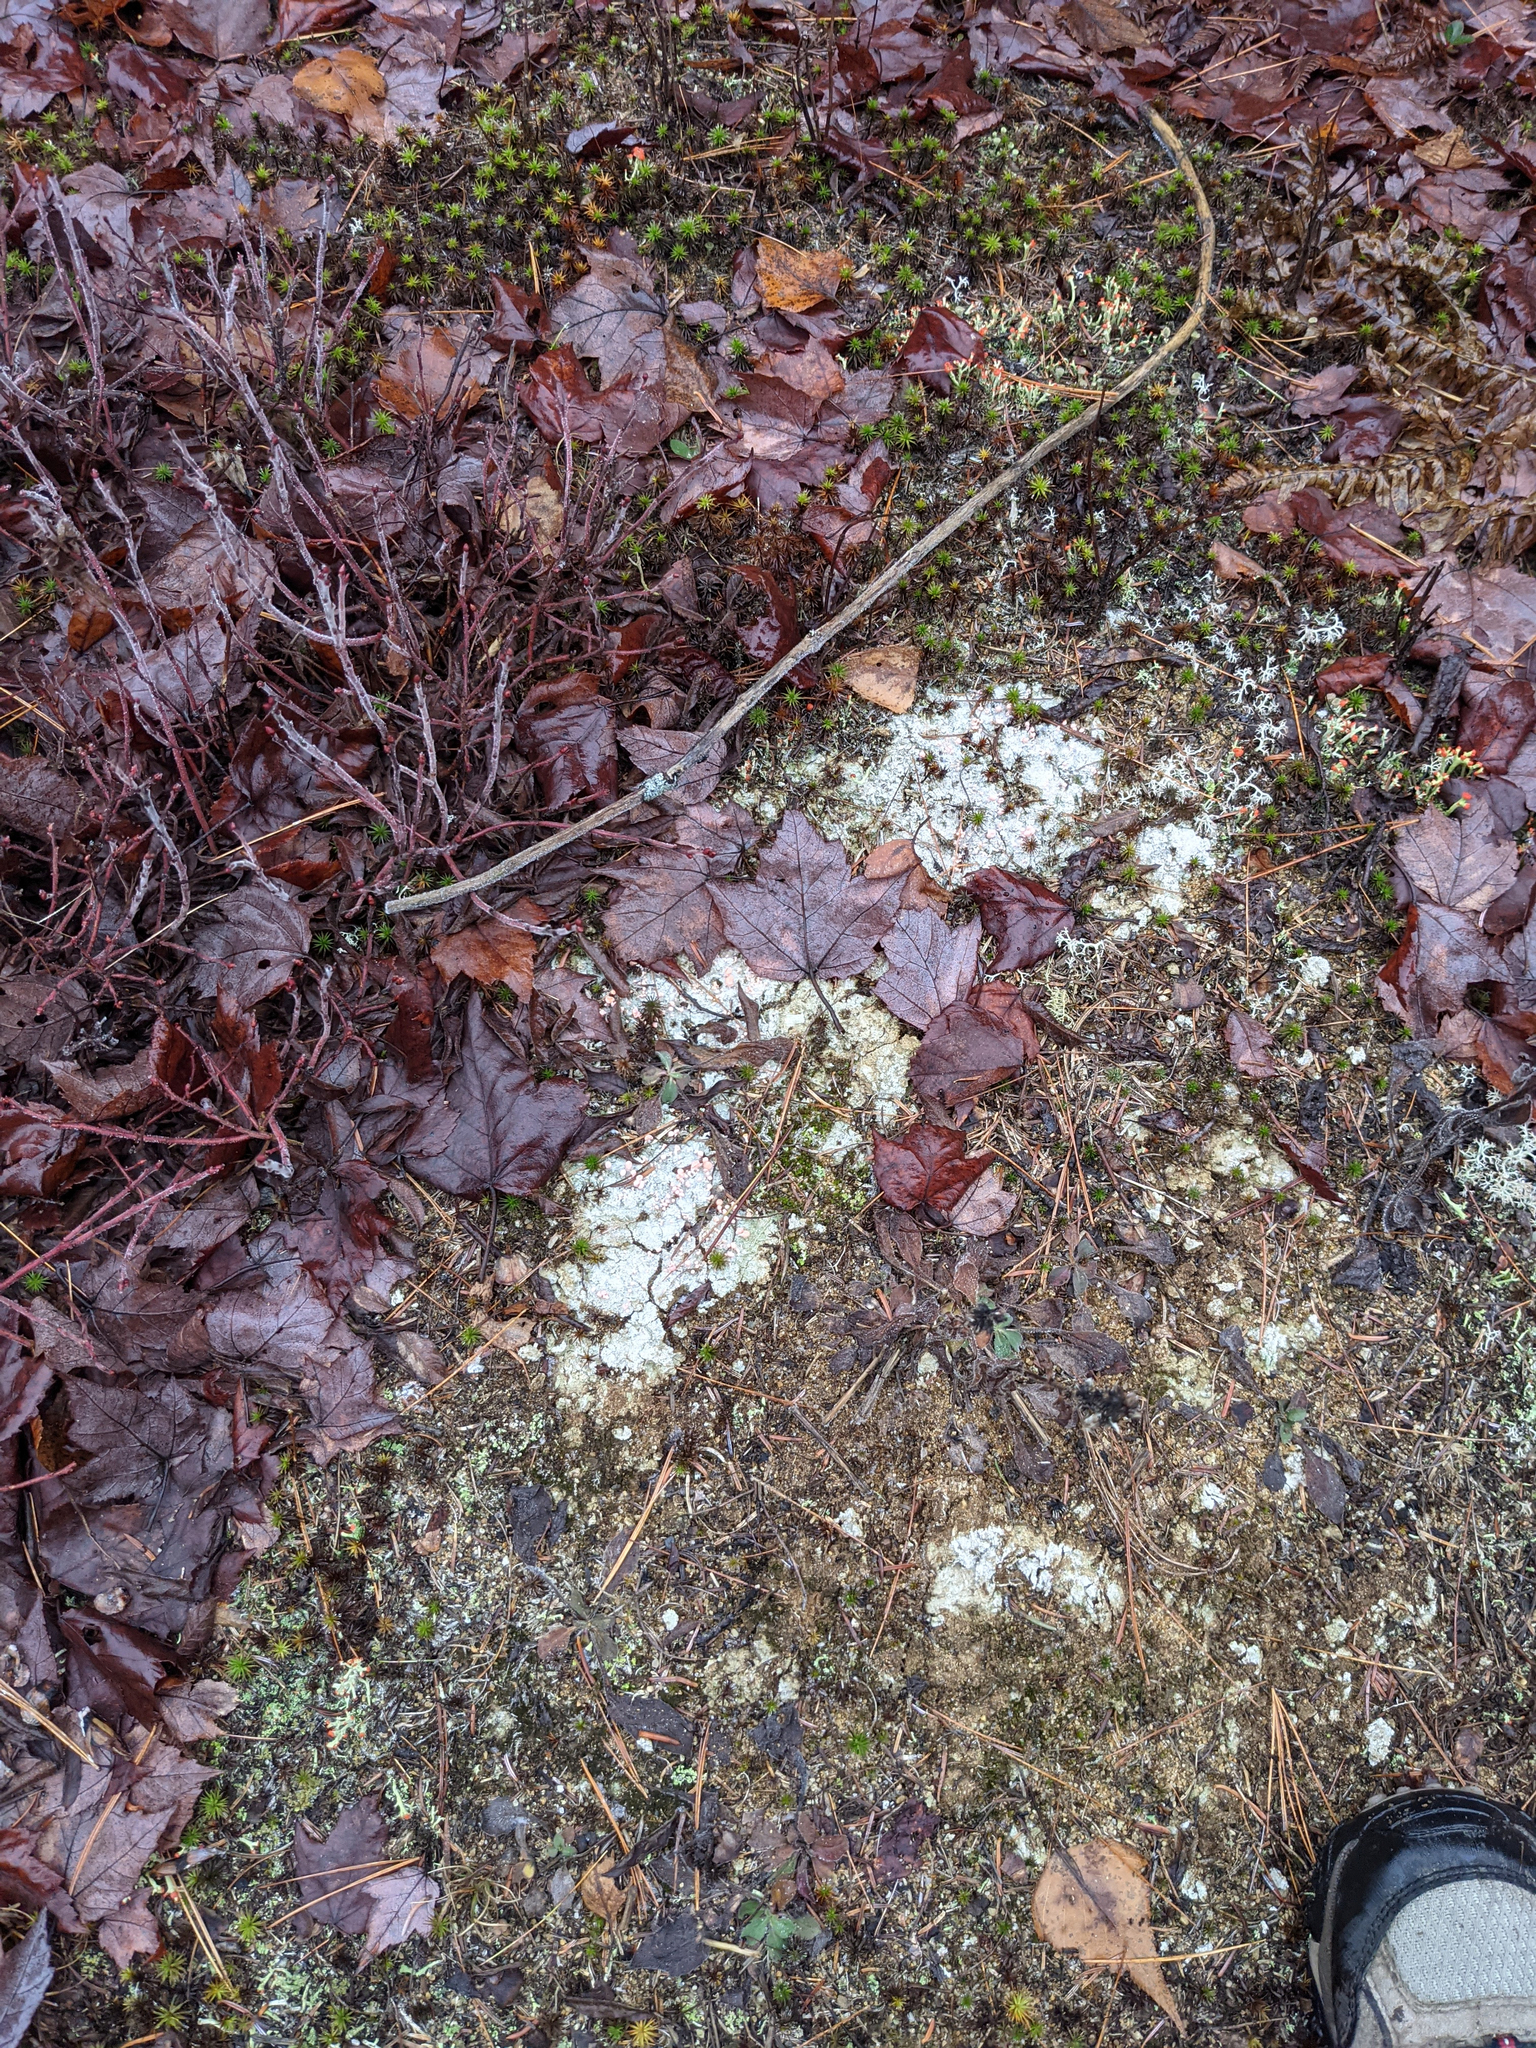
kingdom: Fungi
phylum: Ascomycota
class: Lecanoromycetes
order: Pertusariales
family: Icmadophilaceae
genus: Dibaeis
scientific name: Dibaeis baeomyces
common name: Pink earth lichen
